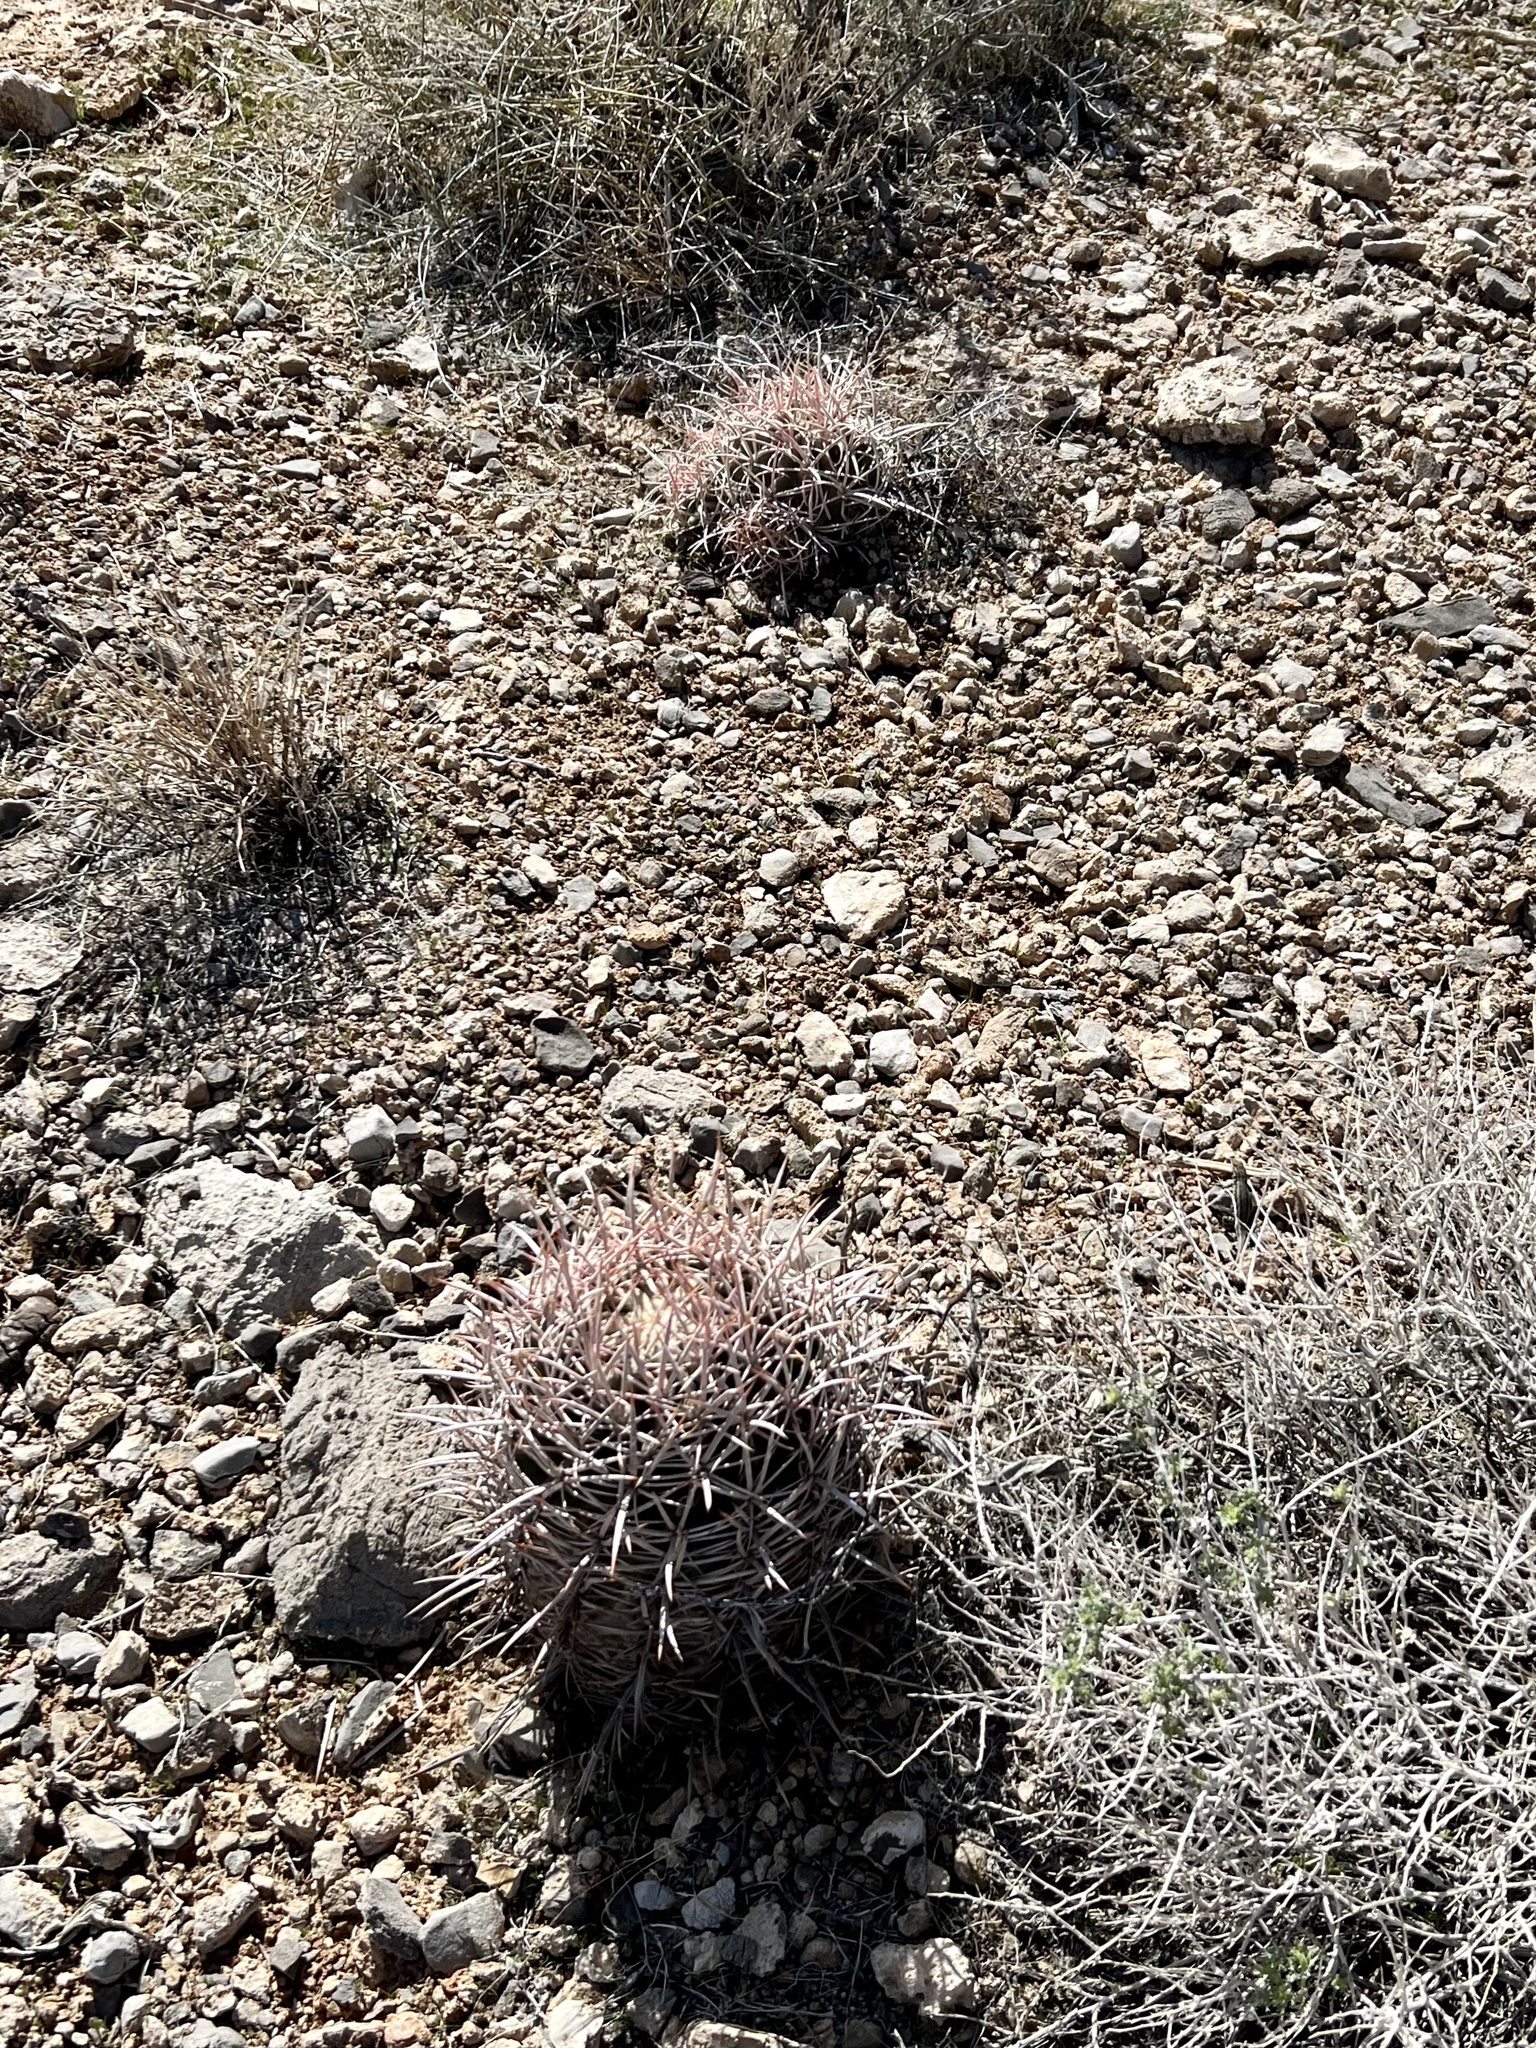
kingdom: Plantae
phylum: Tracheophyta
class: Magnoliopsida
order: Caryophyllales
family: Cactaceae
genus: Echinocactus
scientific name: Echinocactus polycephalus
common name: Cottontop cactus
